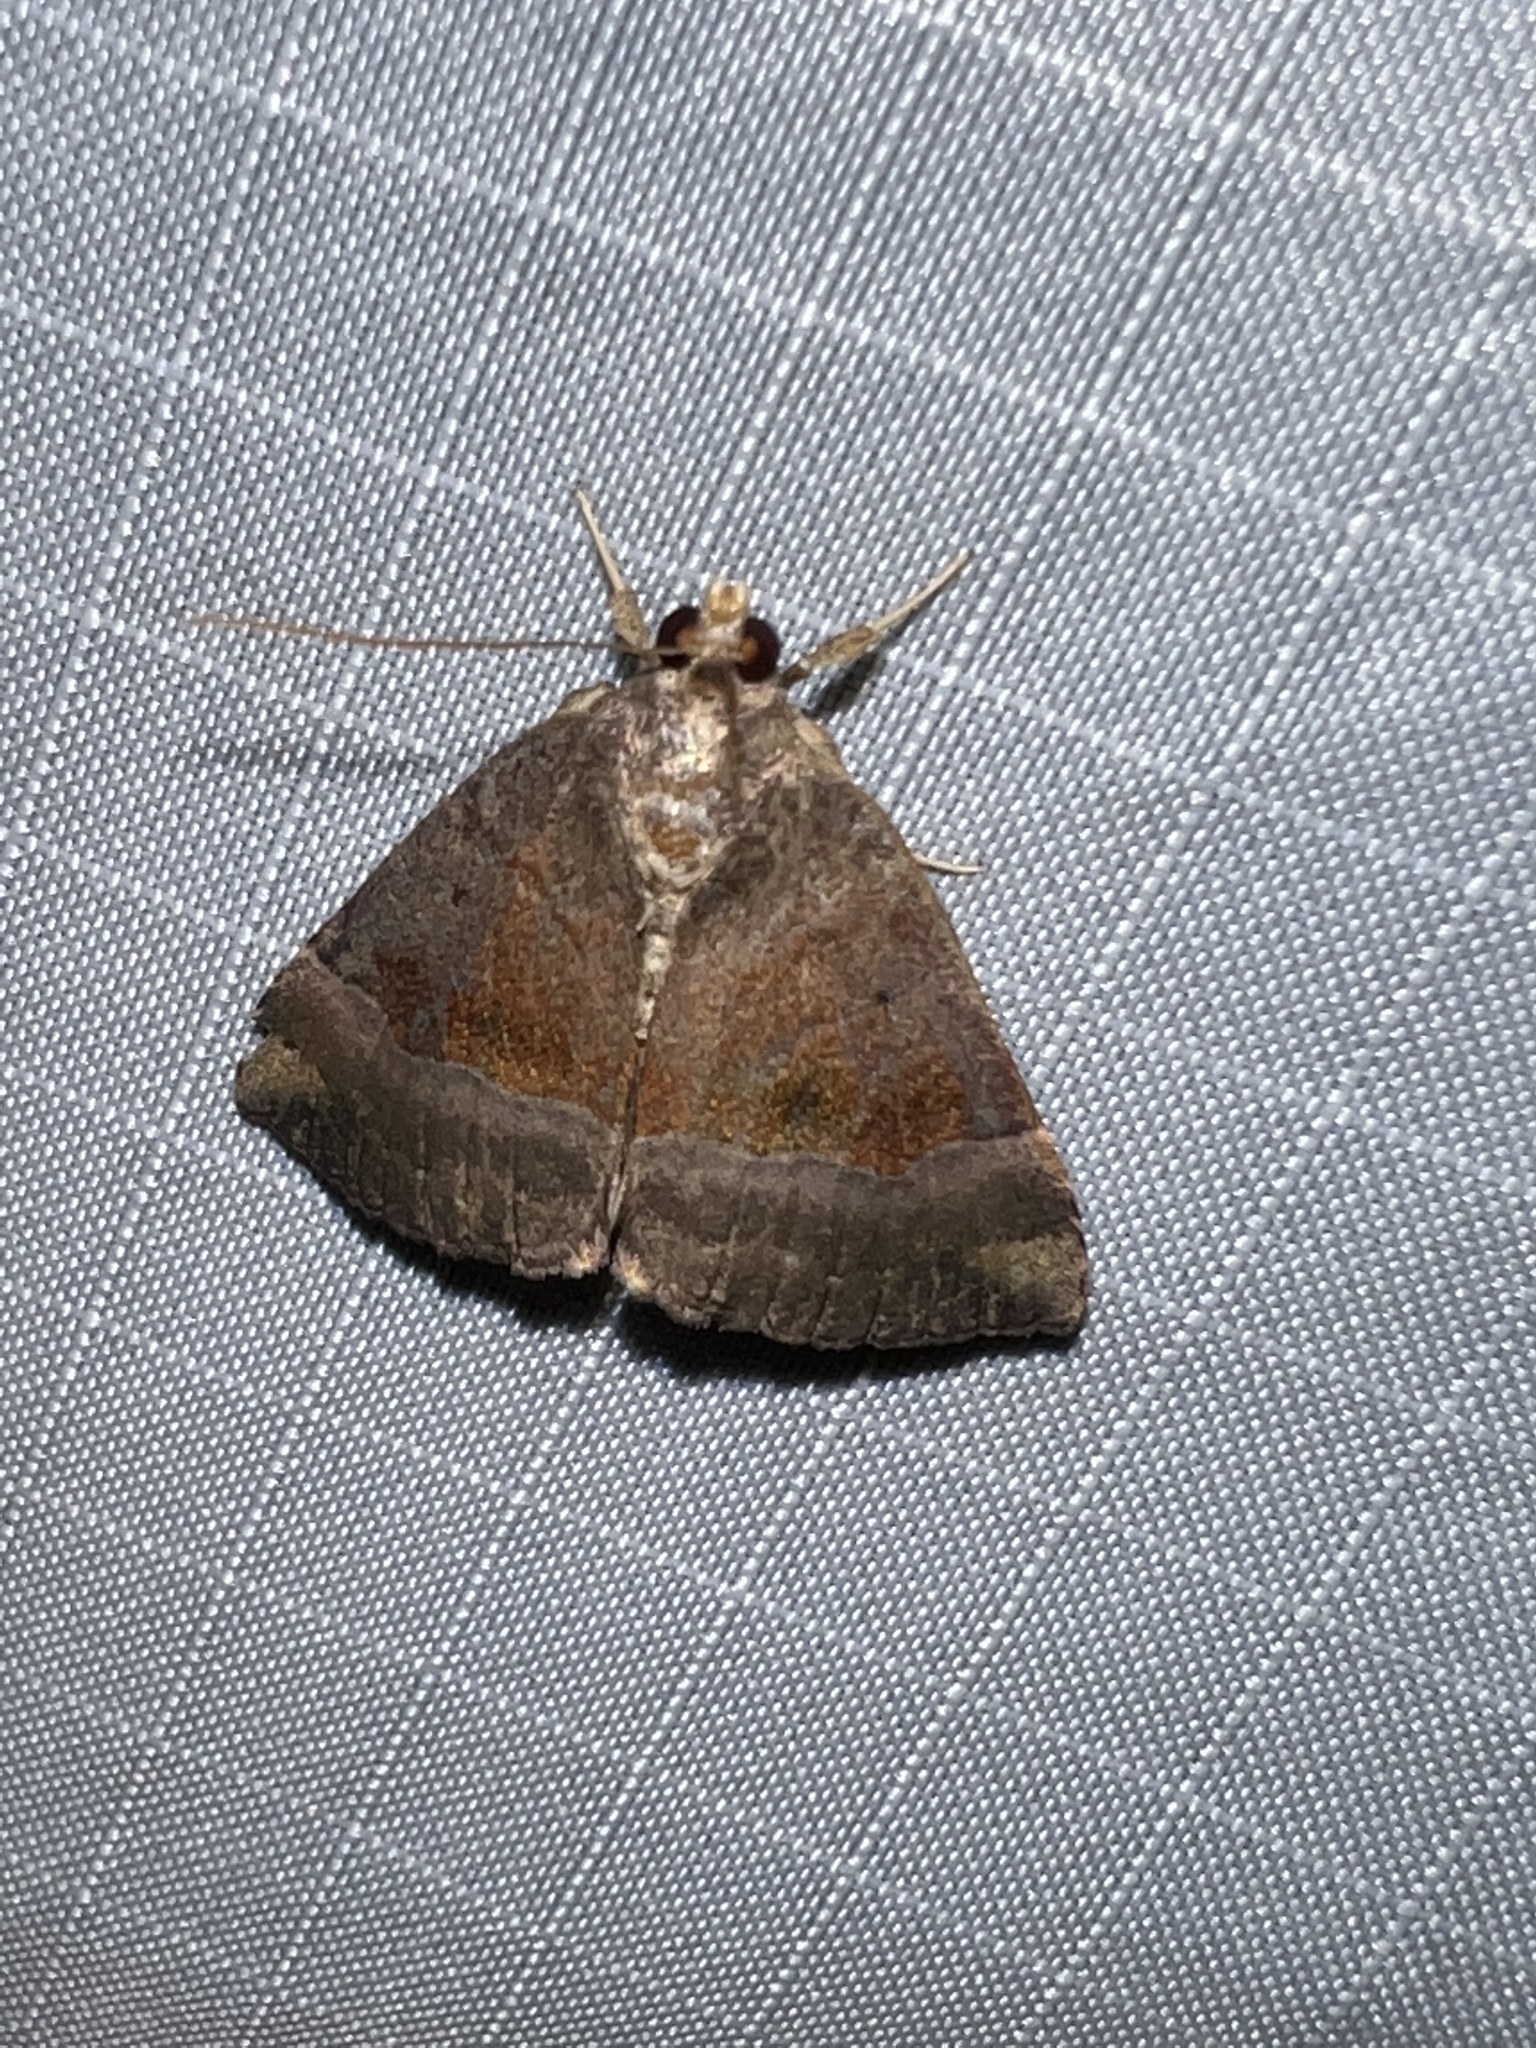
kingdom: Animalia
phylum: Arthropoda
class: Insecta
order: Lepidoptera
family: Erebidae
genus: Hypena
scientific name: Hypena madefactalis
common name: Gray-edged snout
